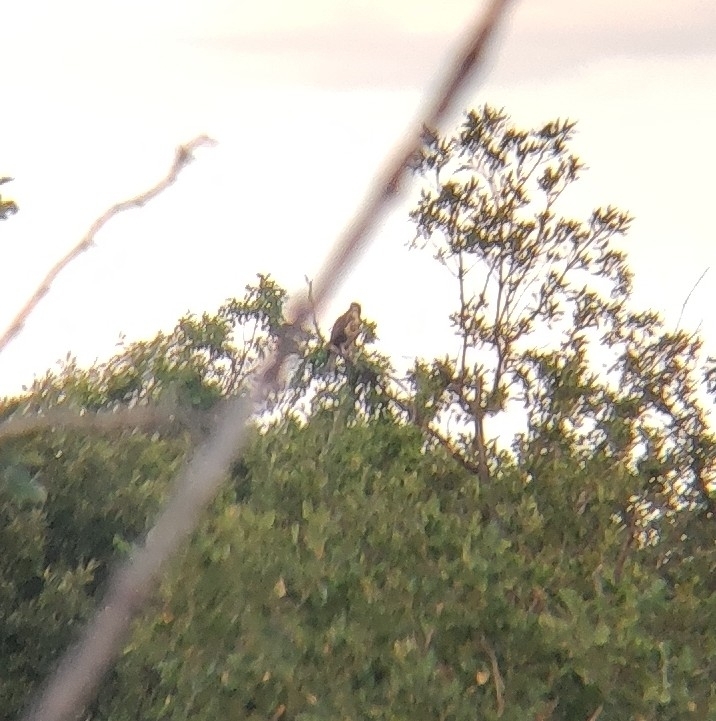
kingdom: Animalia
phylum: Chordata
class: Aves
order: Accipitriformes
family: Accipitridae
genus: Buteo
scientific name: Buteo buteo
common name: Common buzzard
